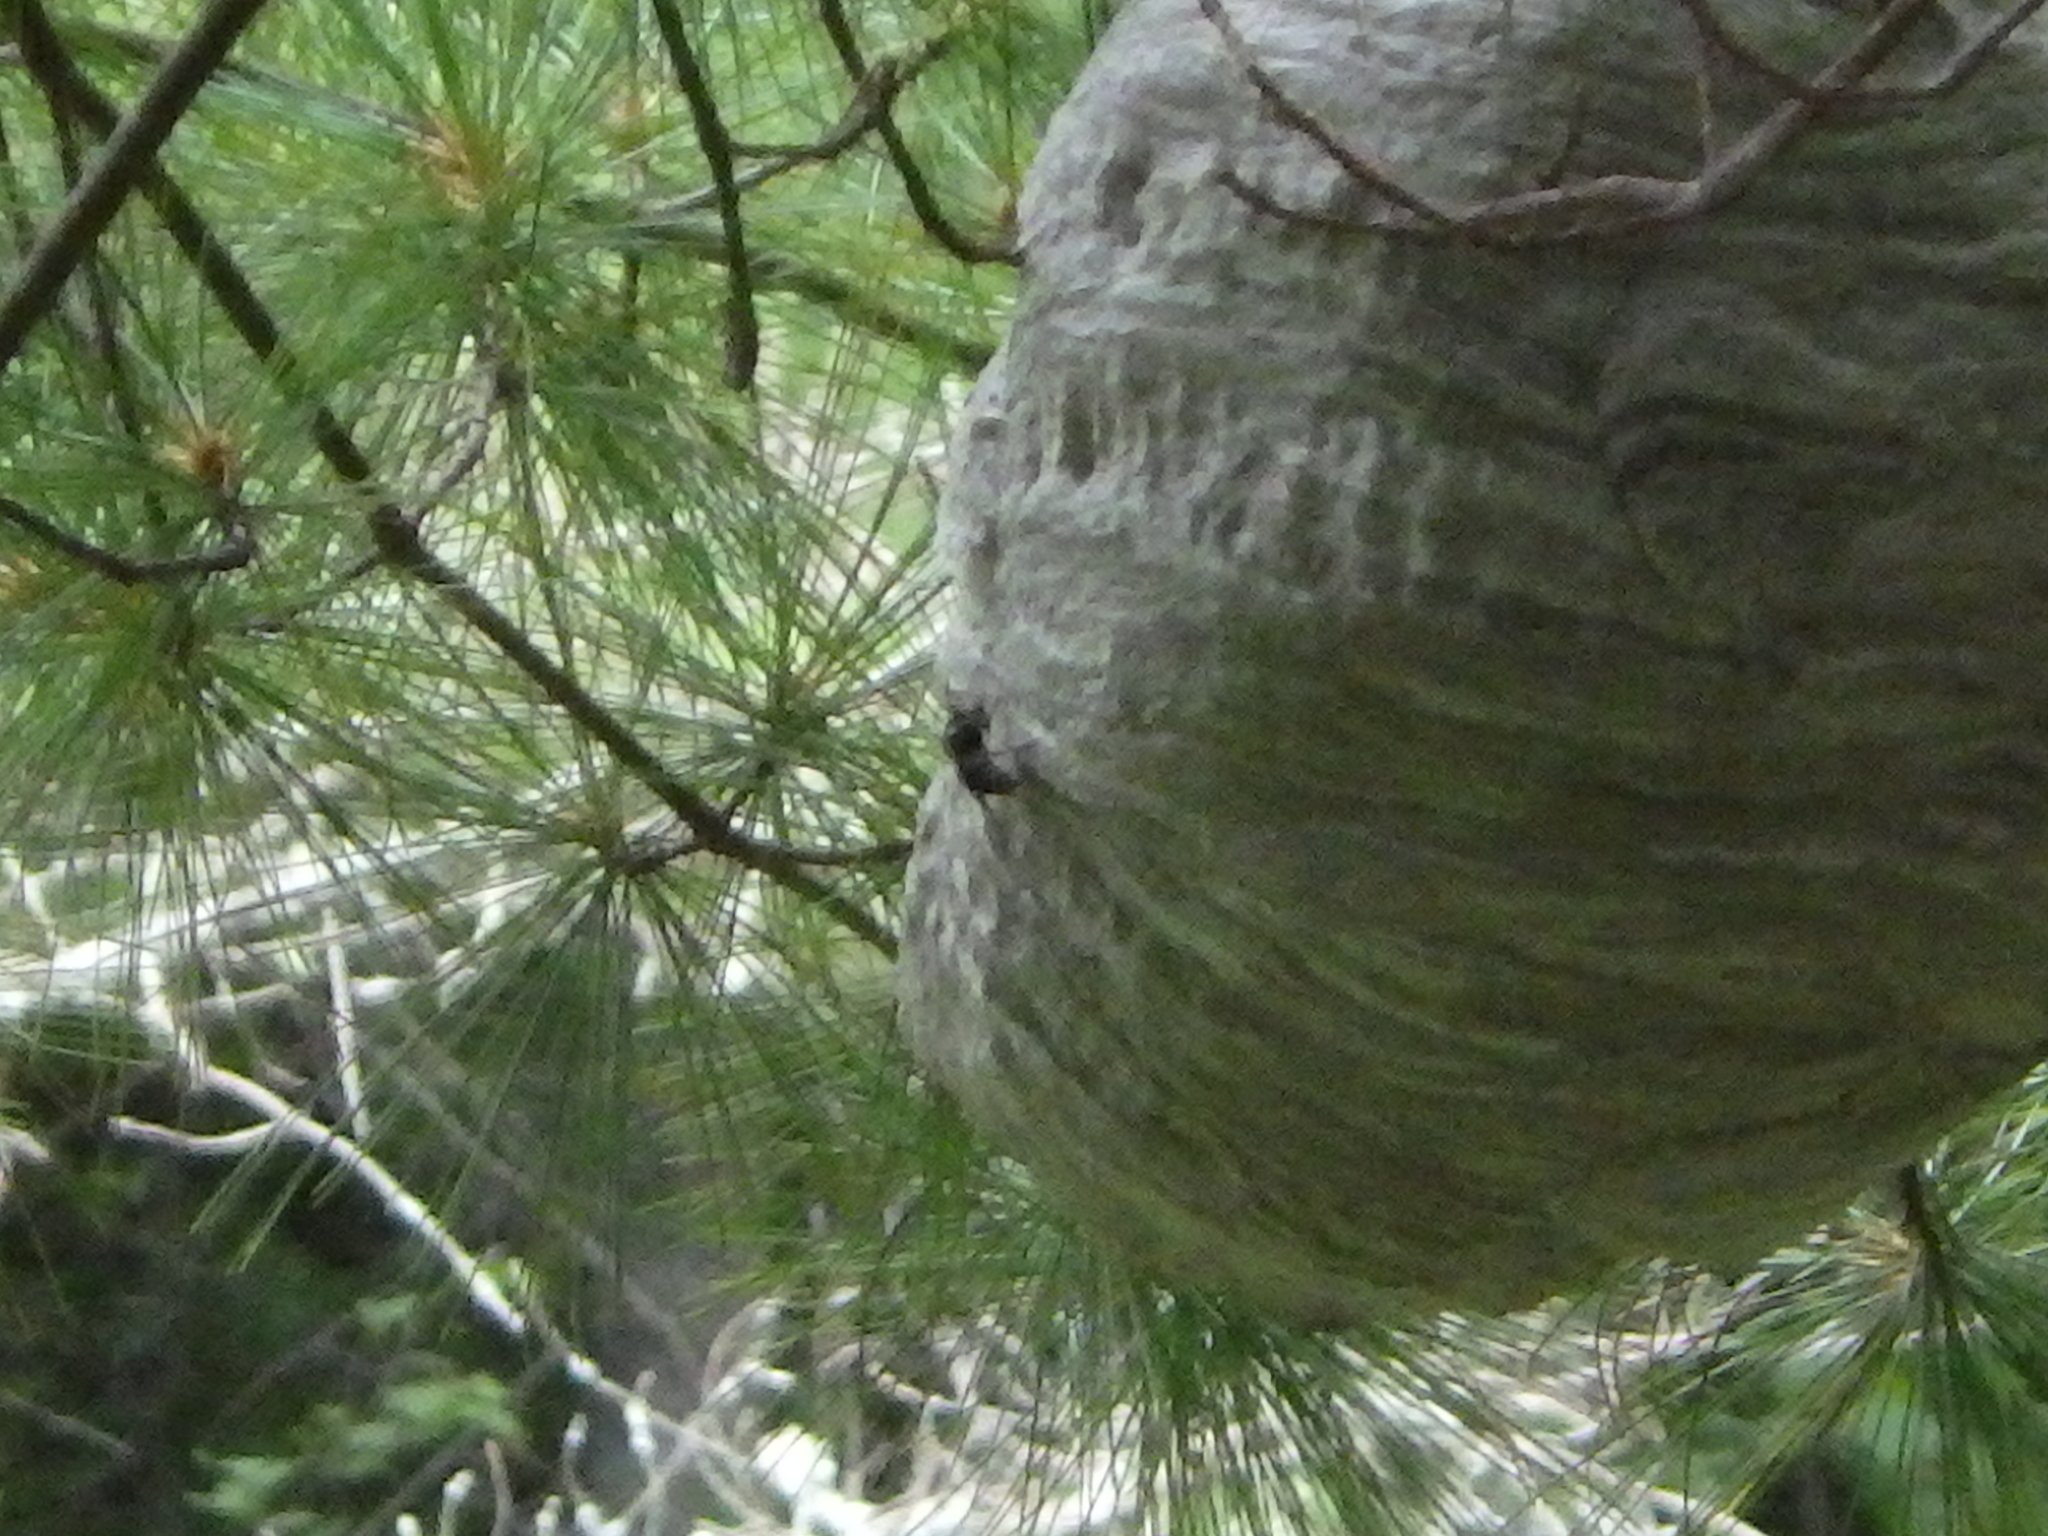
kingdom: Animalia
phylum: Arthropoda
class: Insecta
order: Hymenoptera
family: Vespidae
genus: Dolichovespula
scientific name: Dolichovespula maculata
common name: Bald-faced hornet
